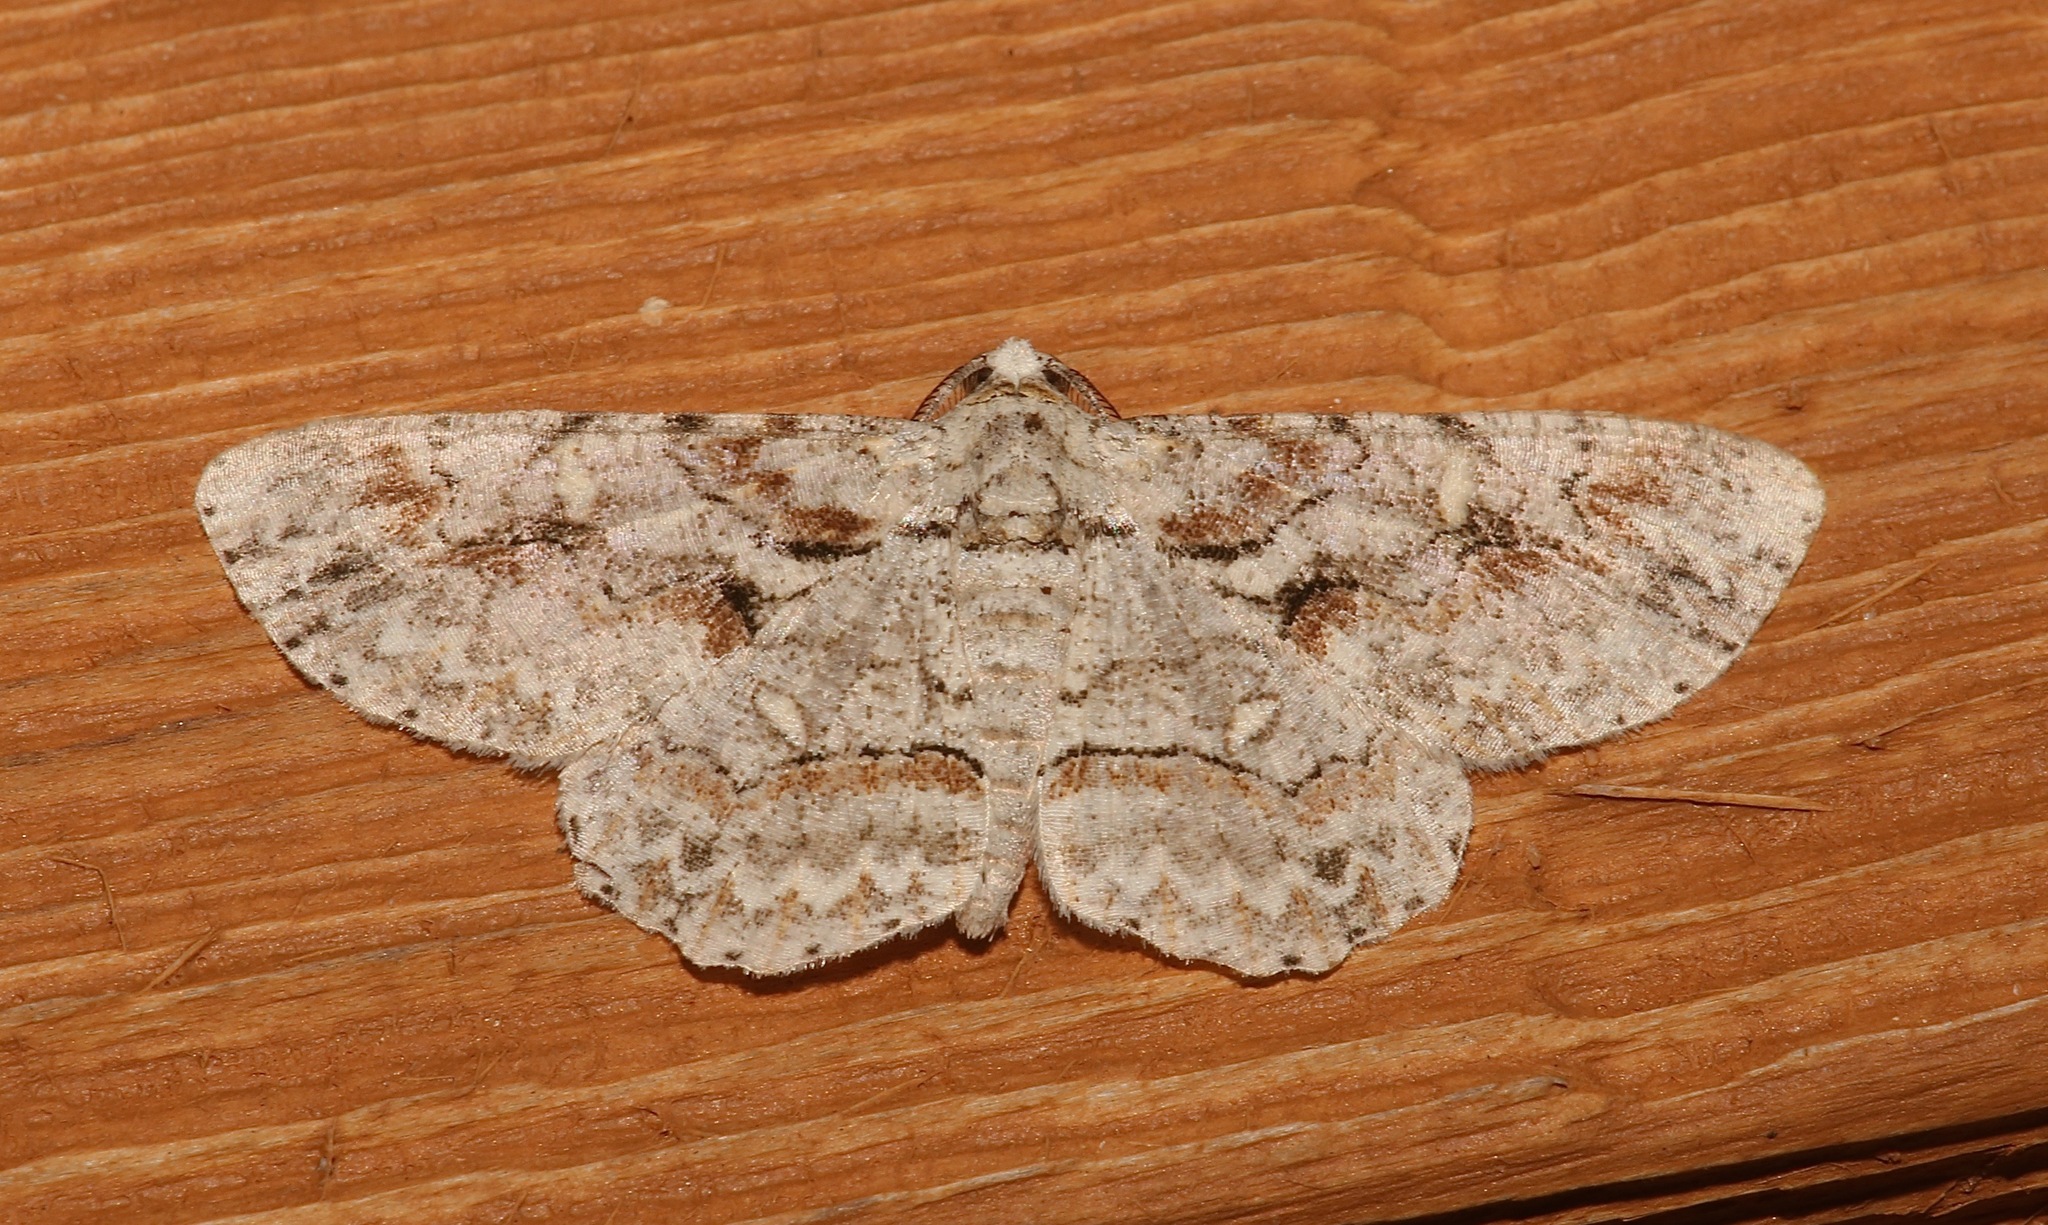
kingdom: Animalia
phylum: Arthropoda
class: Insecta
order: Lepidoptera
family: Geometridae
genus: Iridopsis
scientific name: Iridopsis defectaria
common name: Brown-shaded gray
